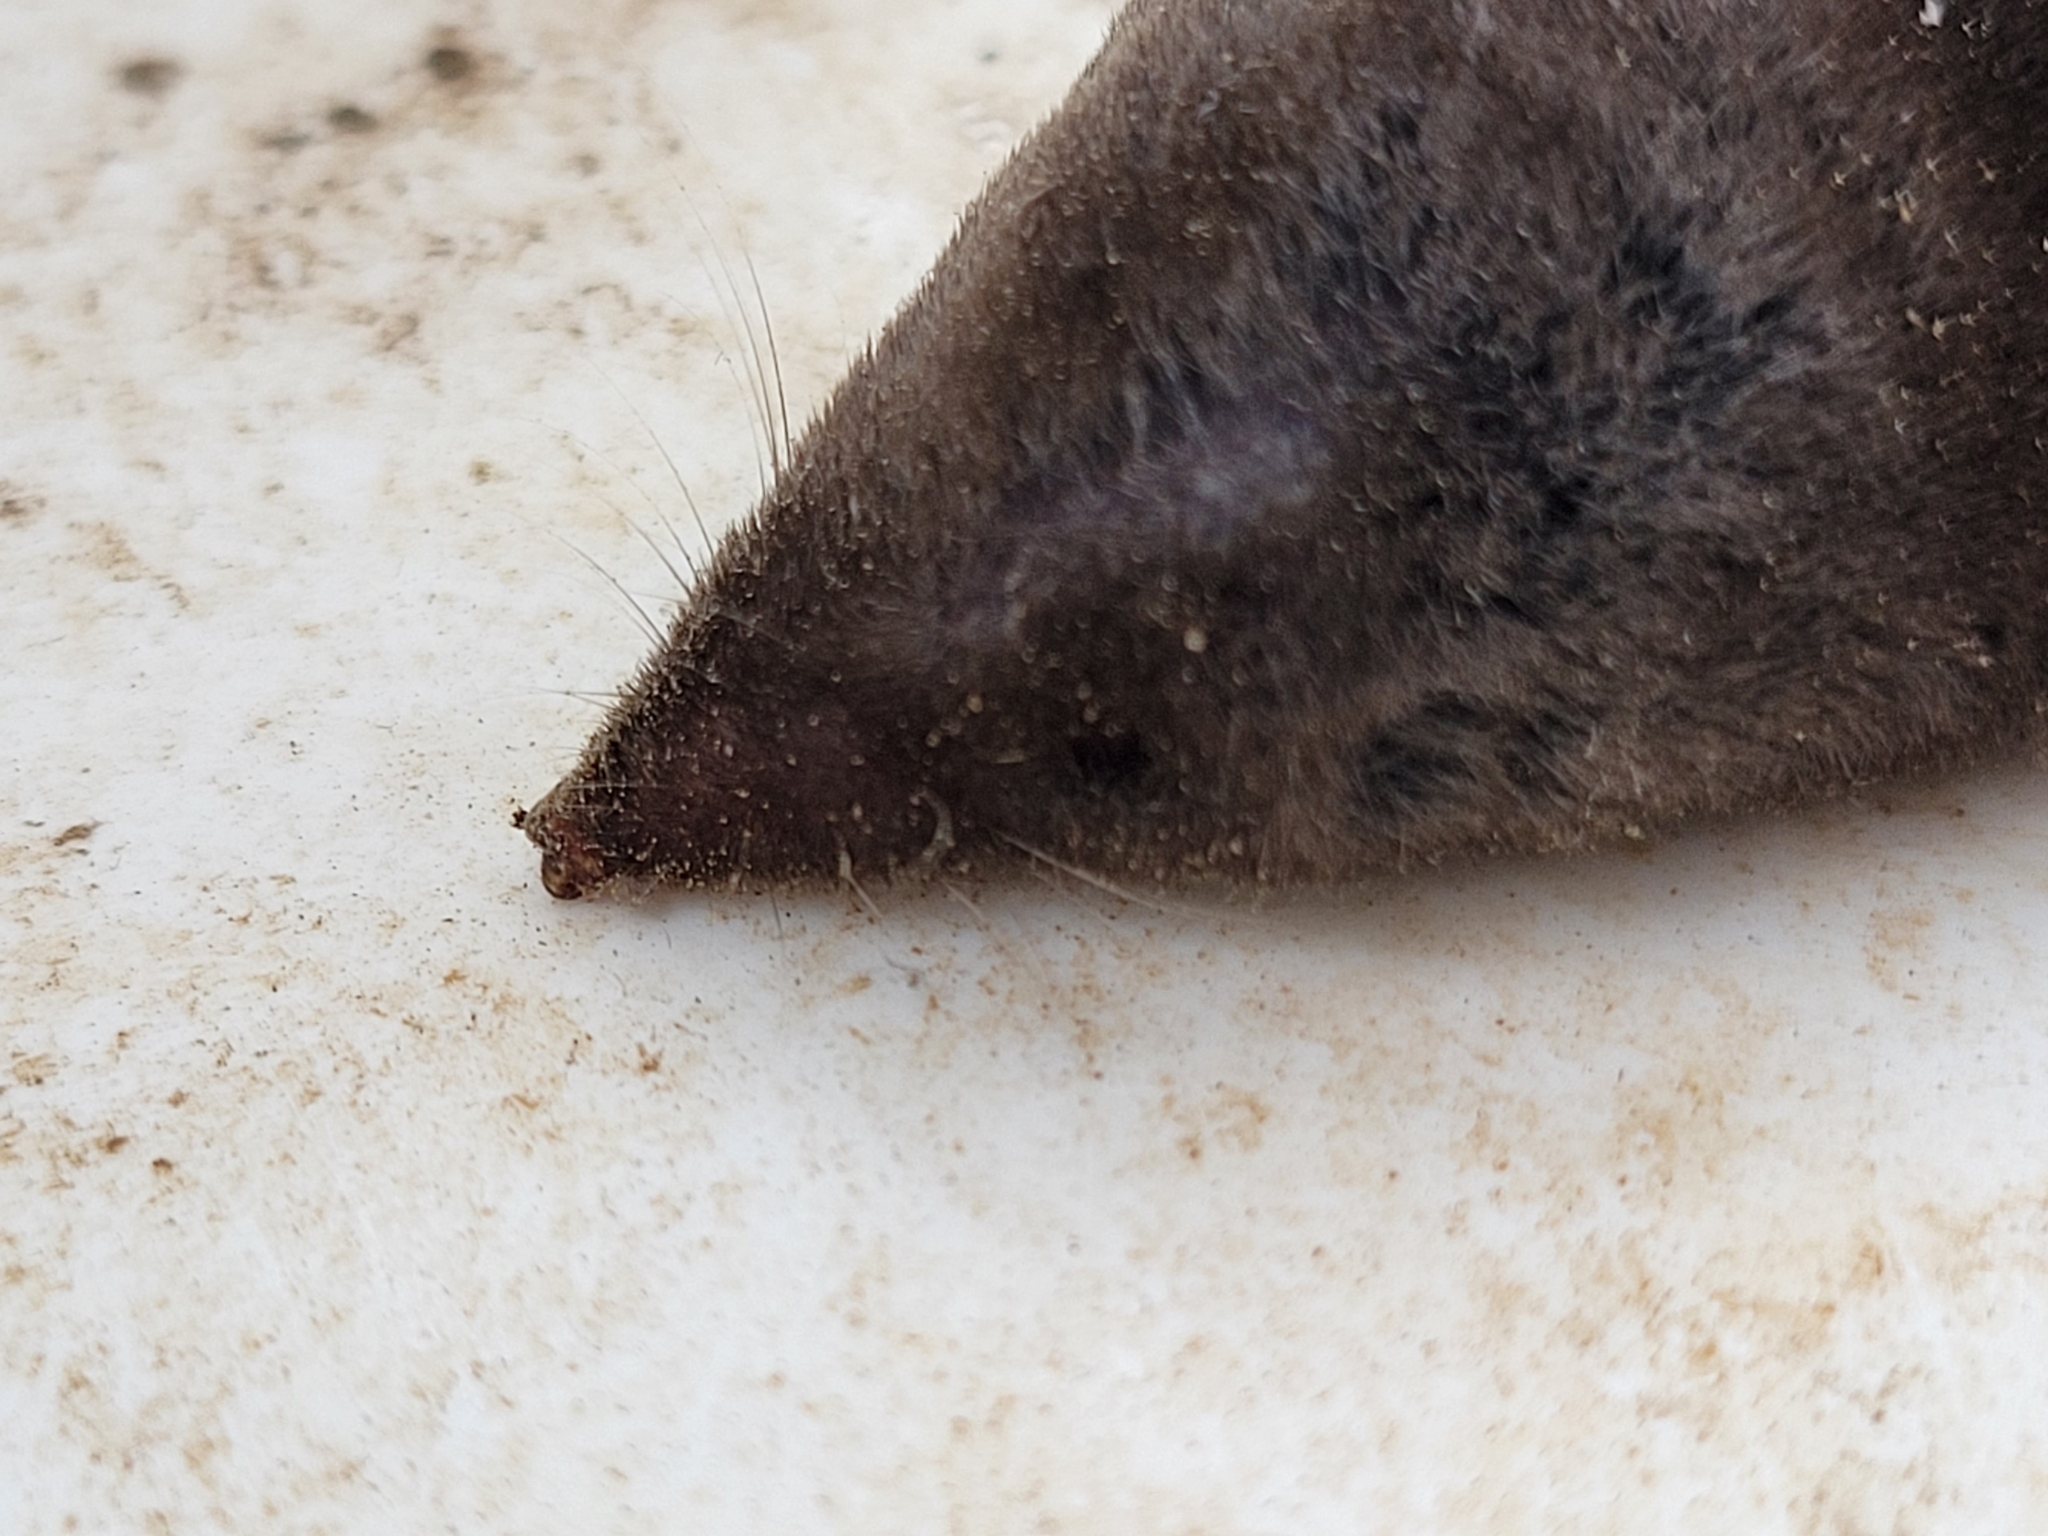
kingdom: Animalia
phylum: Chordata
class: Mammalia
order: Soricomorpha
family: Soricidae
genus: Blarina
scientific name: Blarina carolinensis
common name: Southern short-tailed shrew
